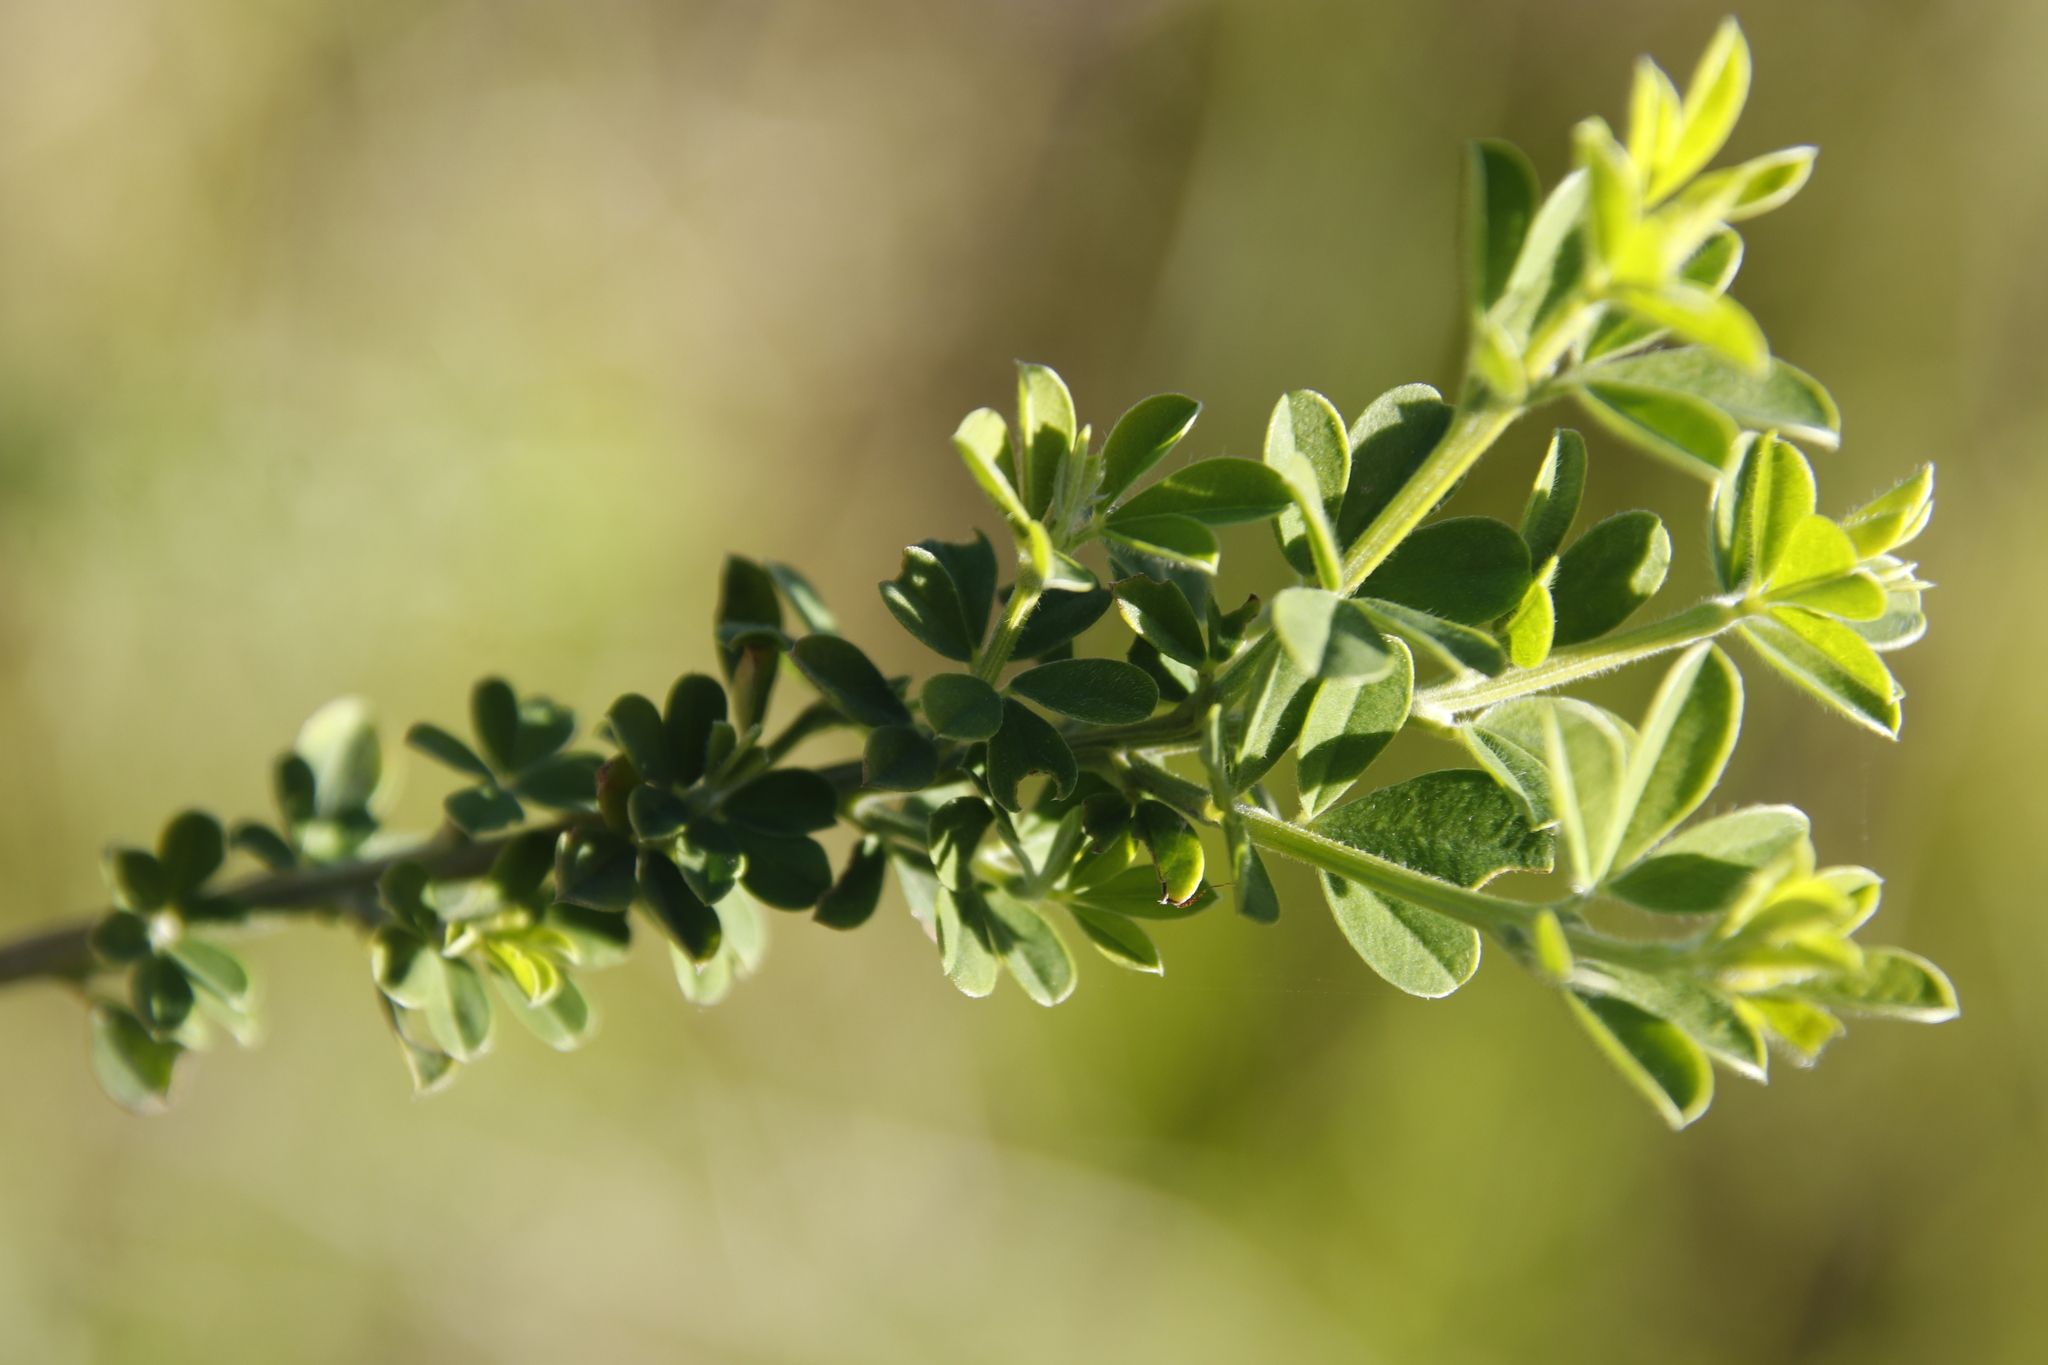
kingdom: Plantae
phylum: Tracheophyta
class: Magnoliopsida
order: Fabales
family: Fabaceae
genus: Genista
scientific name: Genista monspessulana
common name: Montpellier broom
